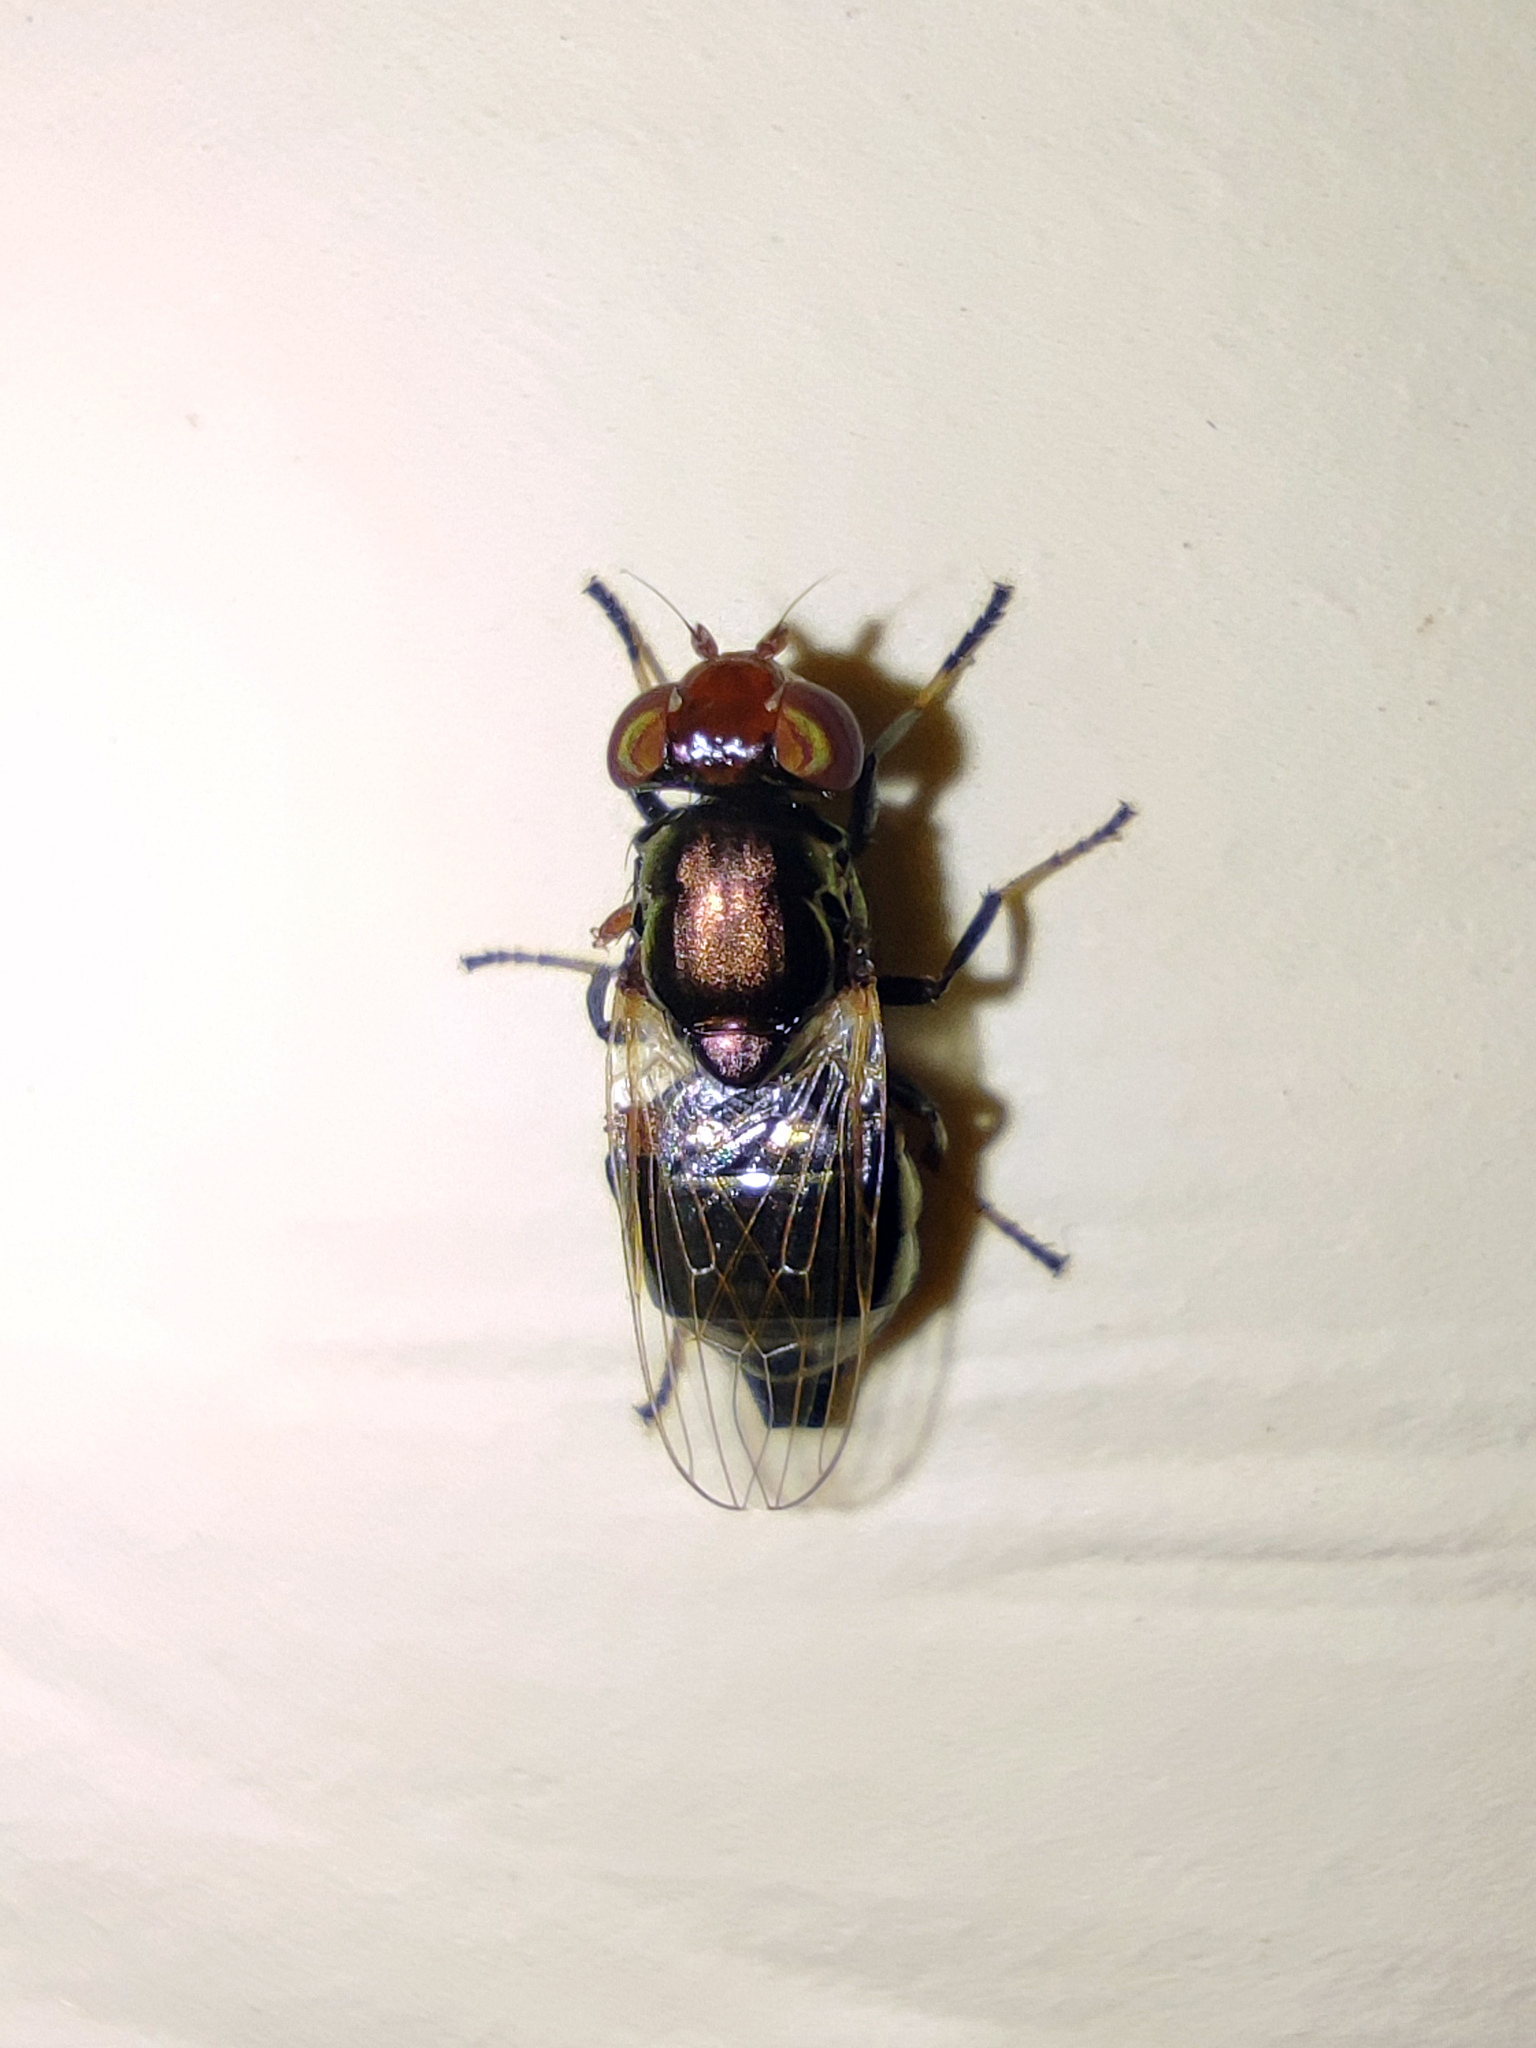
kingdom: Animalia
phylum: Arthropoda
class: Insecta
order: Diptera
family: Ulidiidae
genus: Physiphora
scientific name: Physiphora alceae
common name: Picture-winged fly
